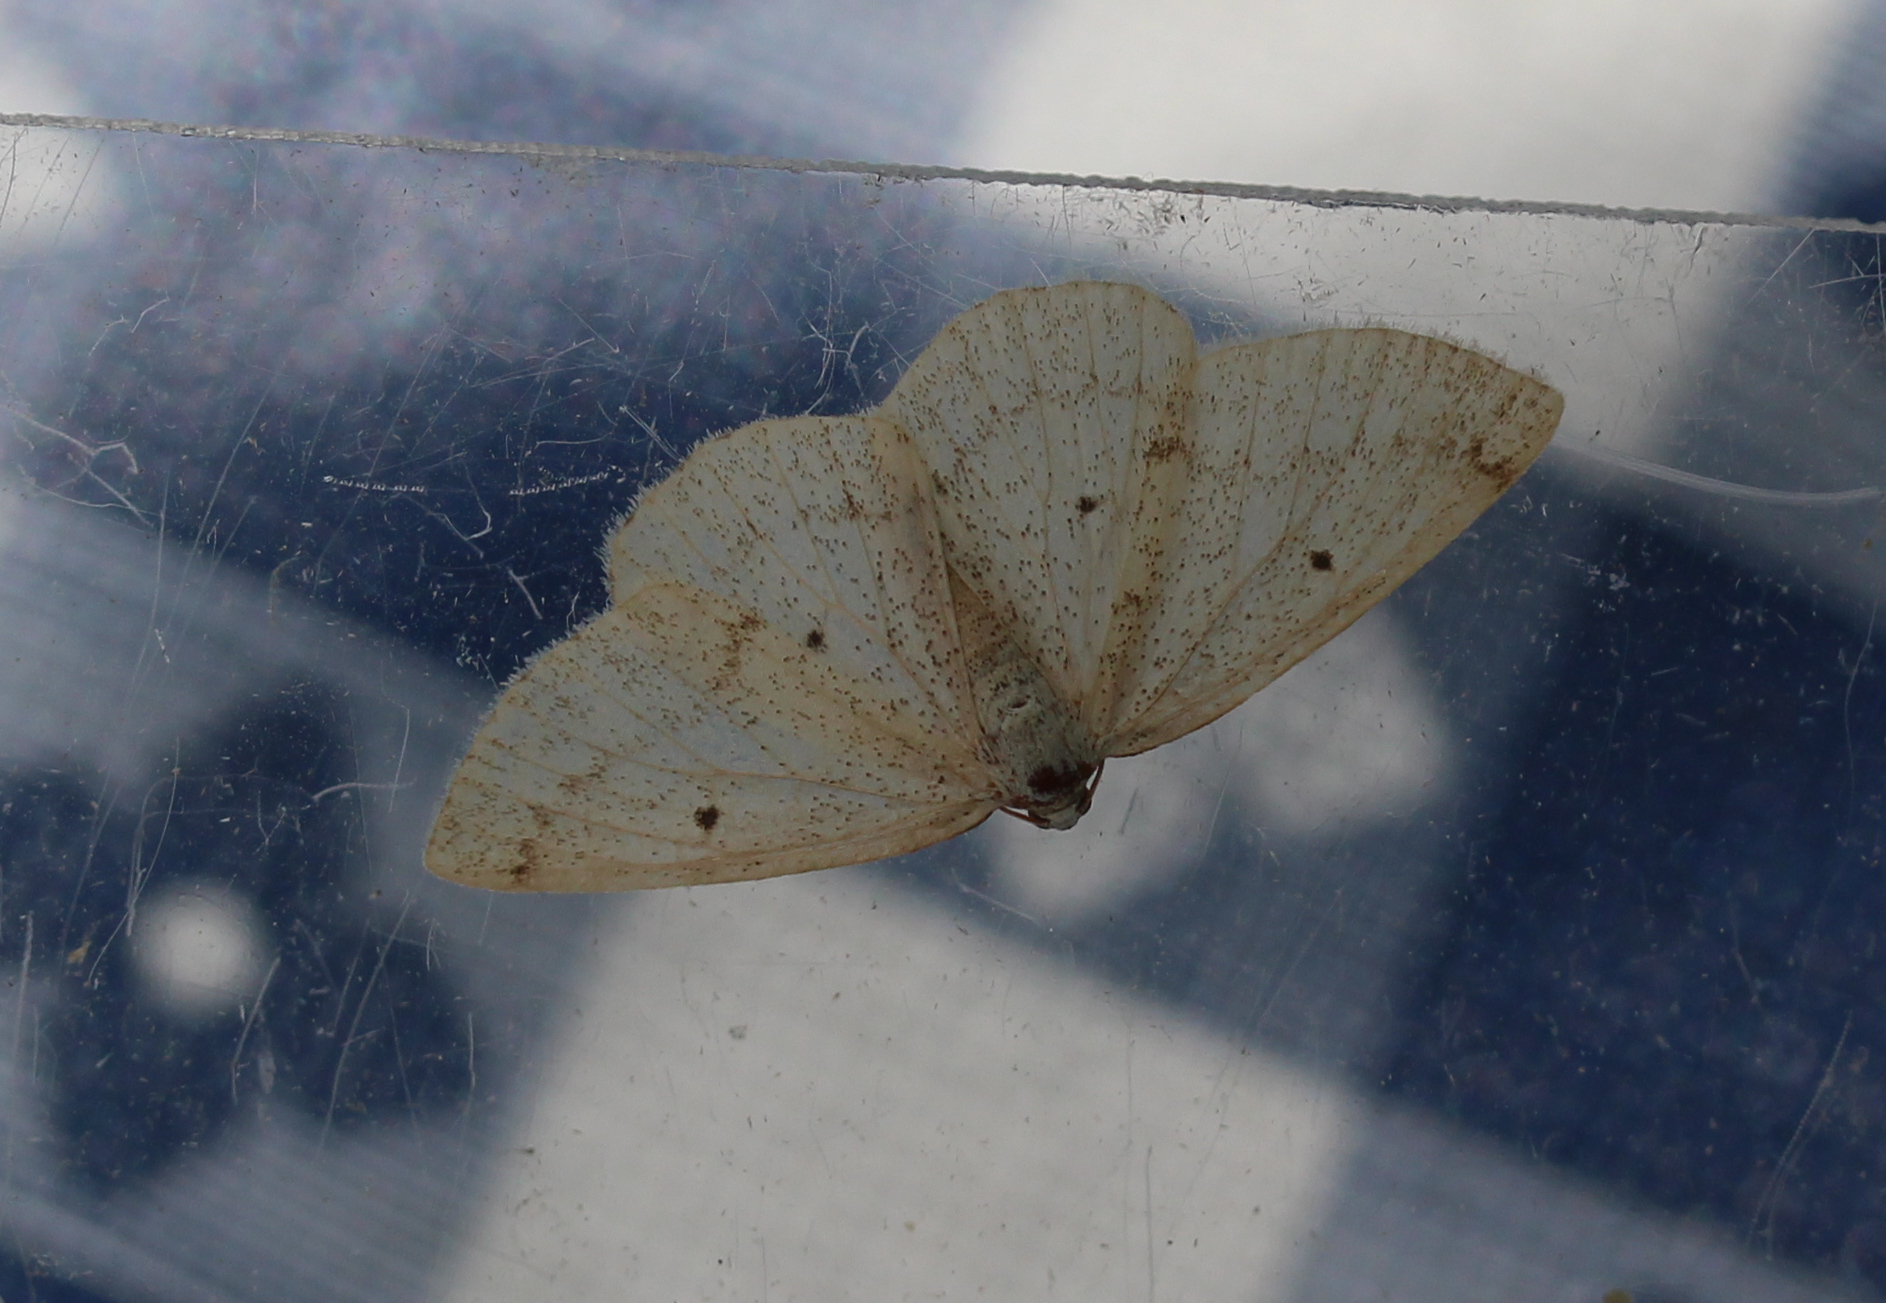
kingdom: Animalia
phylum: Arthropoda
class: Insecta
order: Lepidoptera
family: Geometridae
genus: Lomographa
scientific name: Lomographa glomeraria
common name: Gray spring moth
